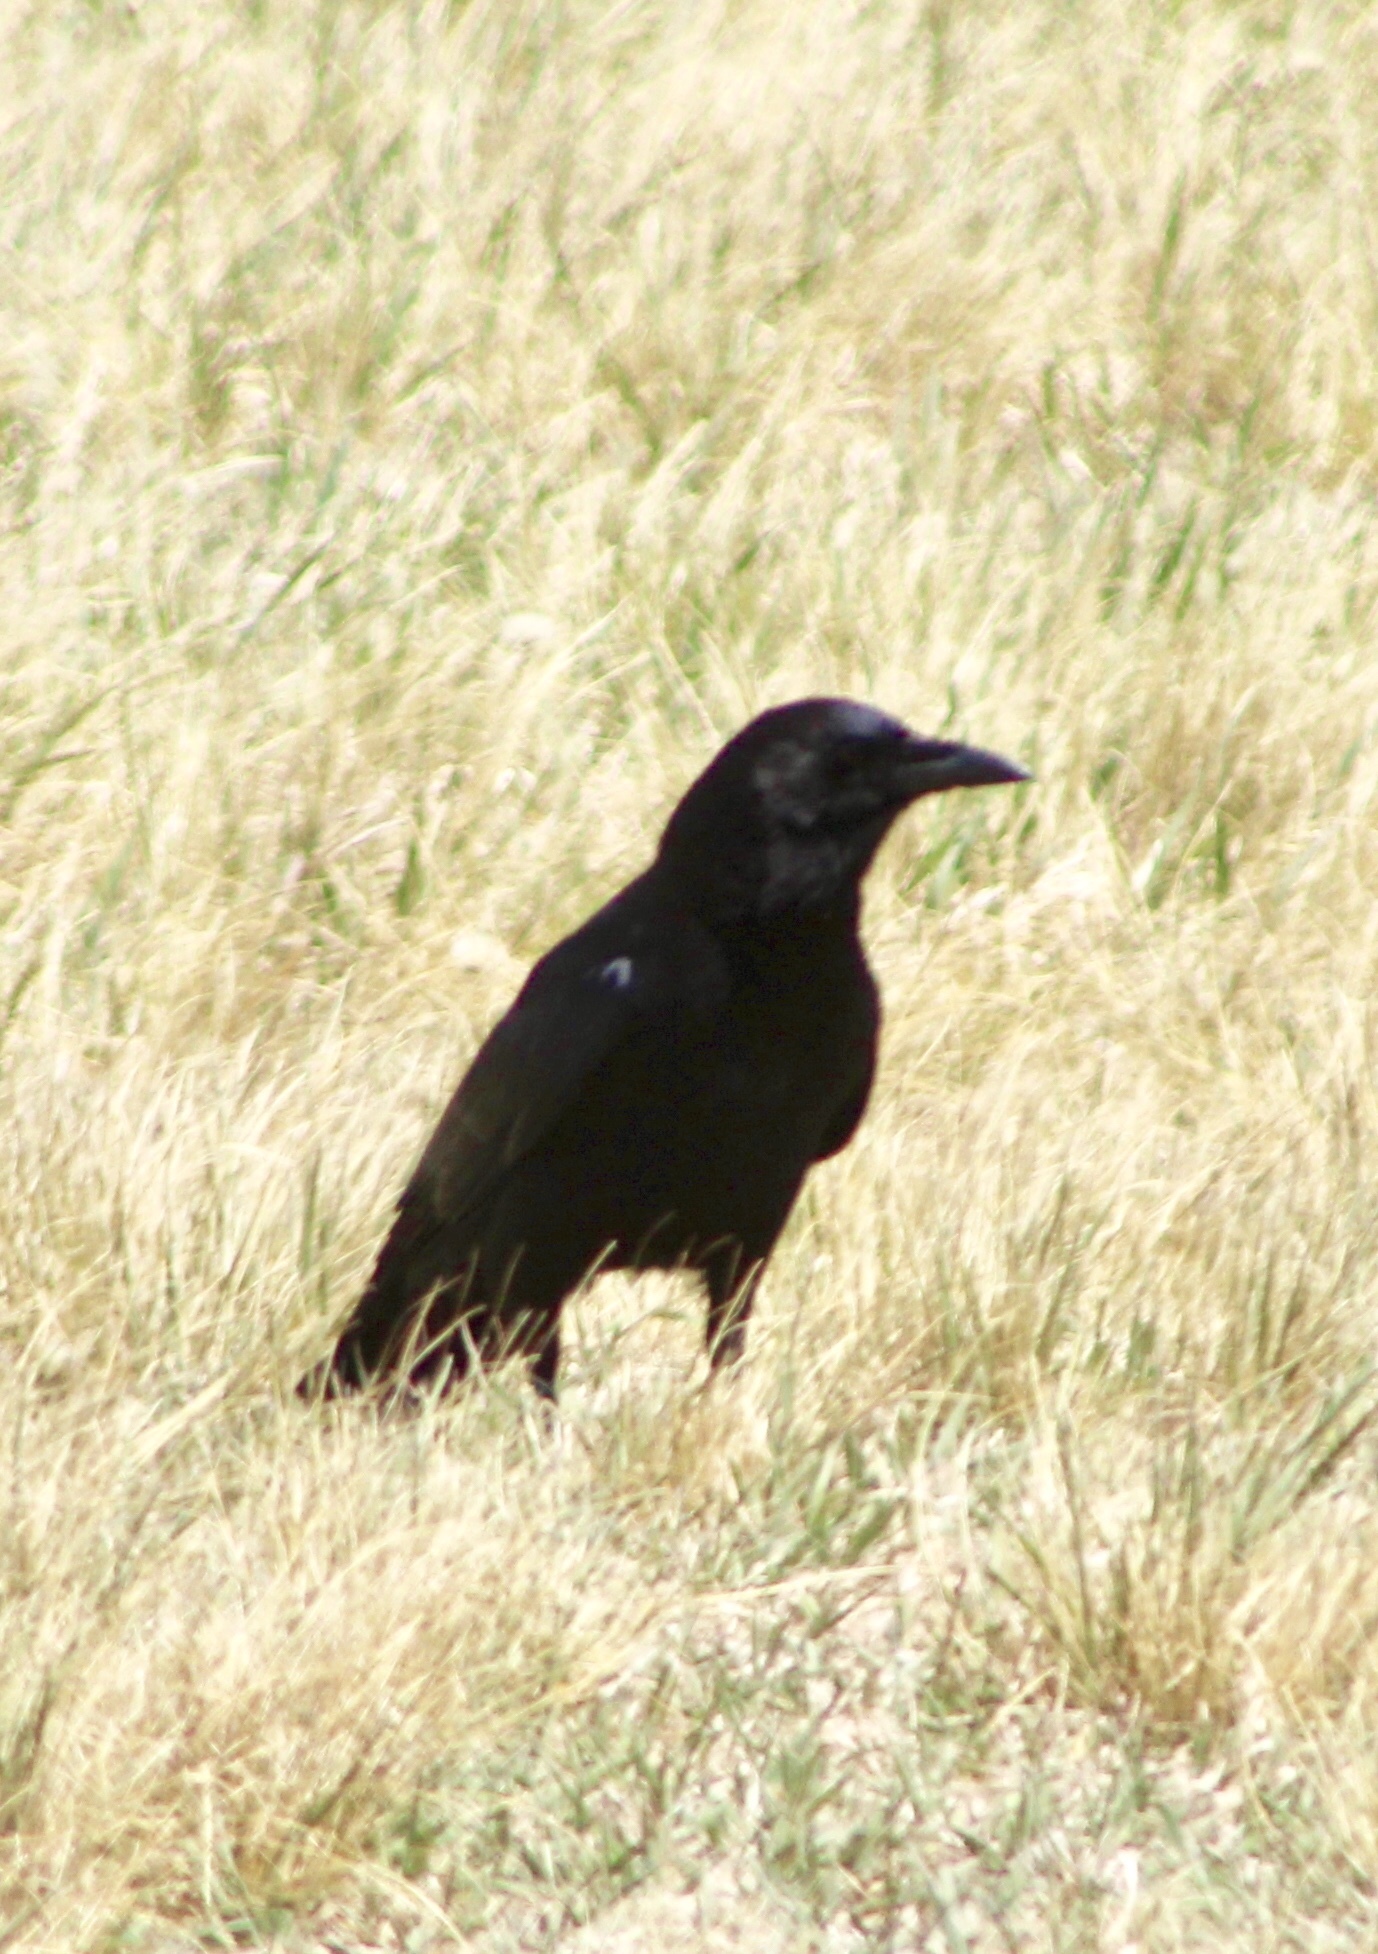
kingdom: Animalia
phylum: Chordata
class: Aves
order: Passeriformes
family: Corvidae
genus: Corvus
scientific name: Corvus brachyrhynchos
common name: American crow
